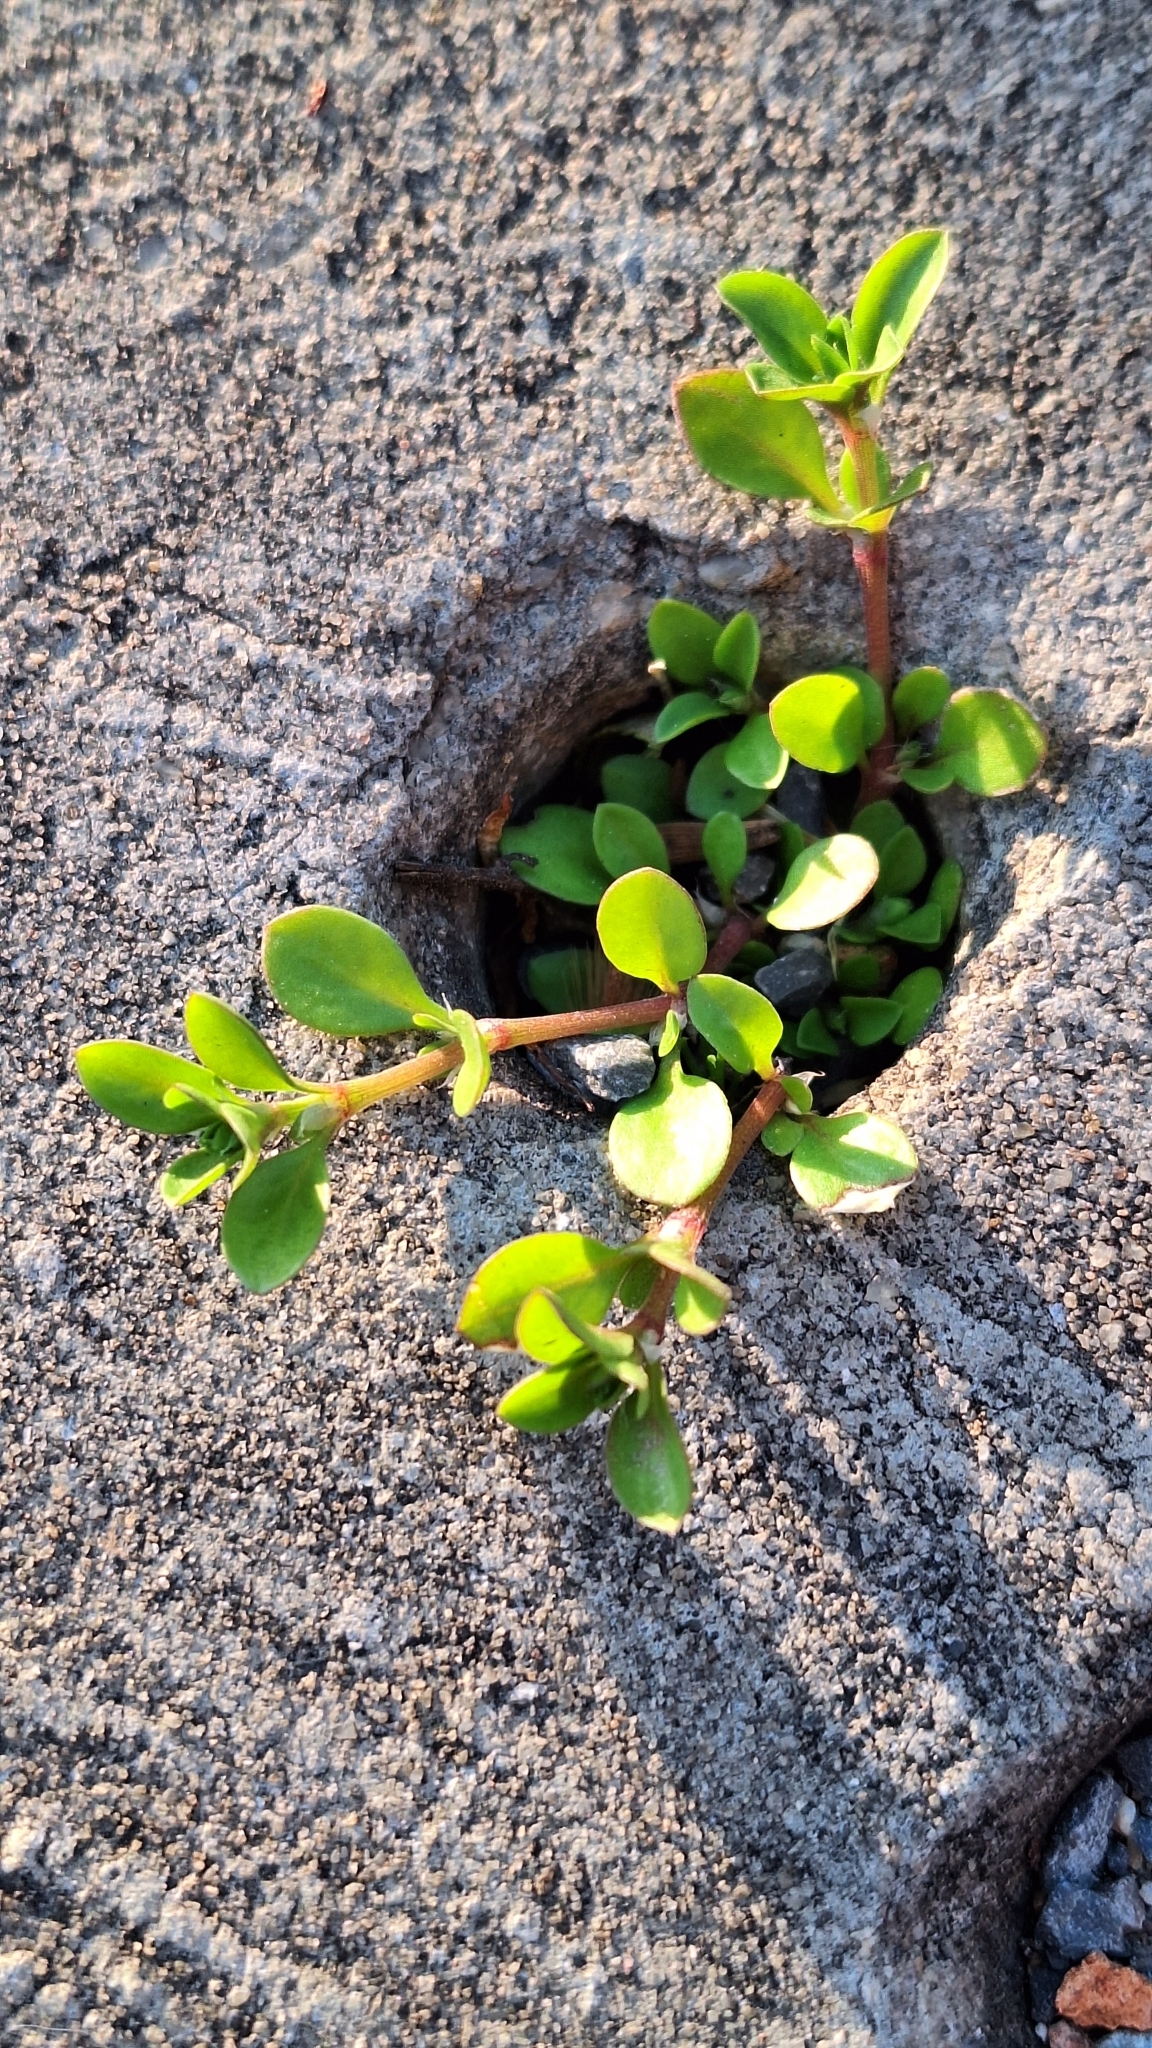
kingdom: Plantae
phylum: Tracheophyta
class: Magnoliopsida
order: Caryophyllales
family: Caryophyllaceae
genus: Polycarpon
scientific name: Polycarpon tetraphyllum
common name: Four-leaved all-seed
